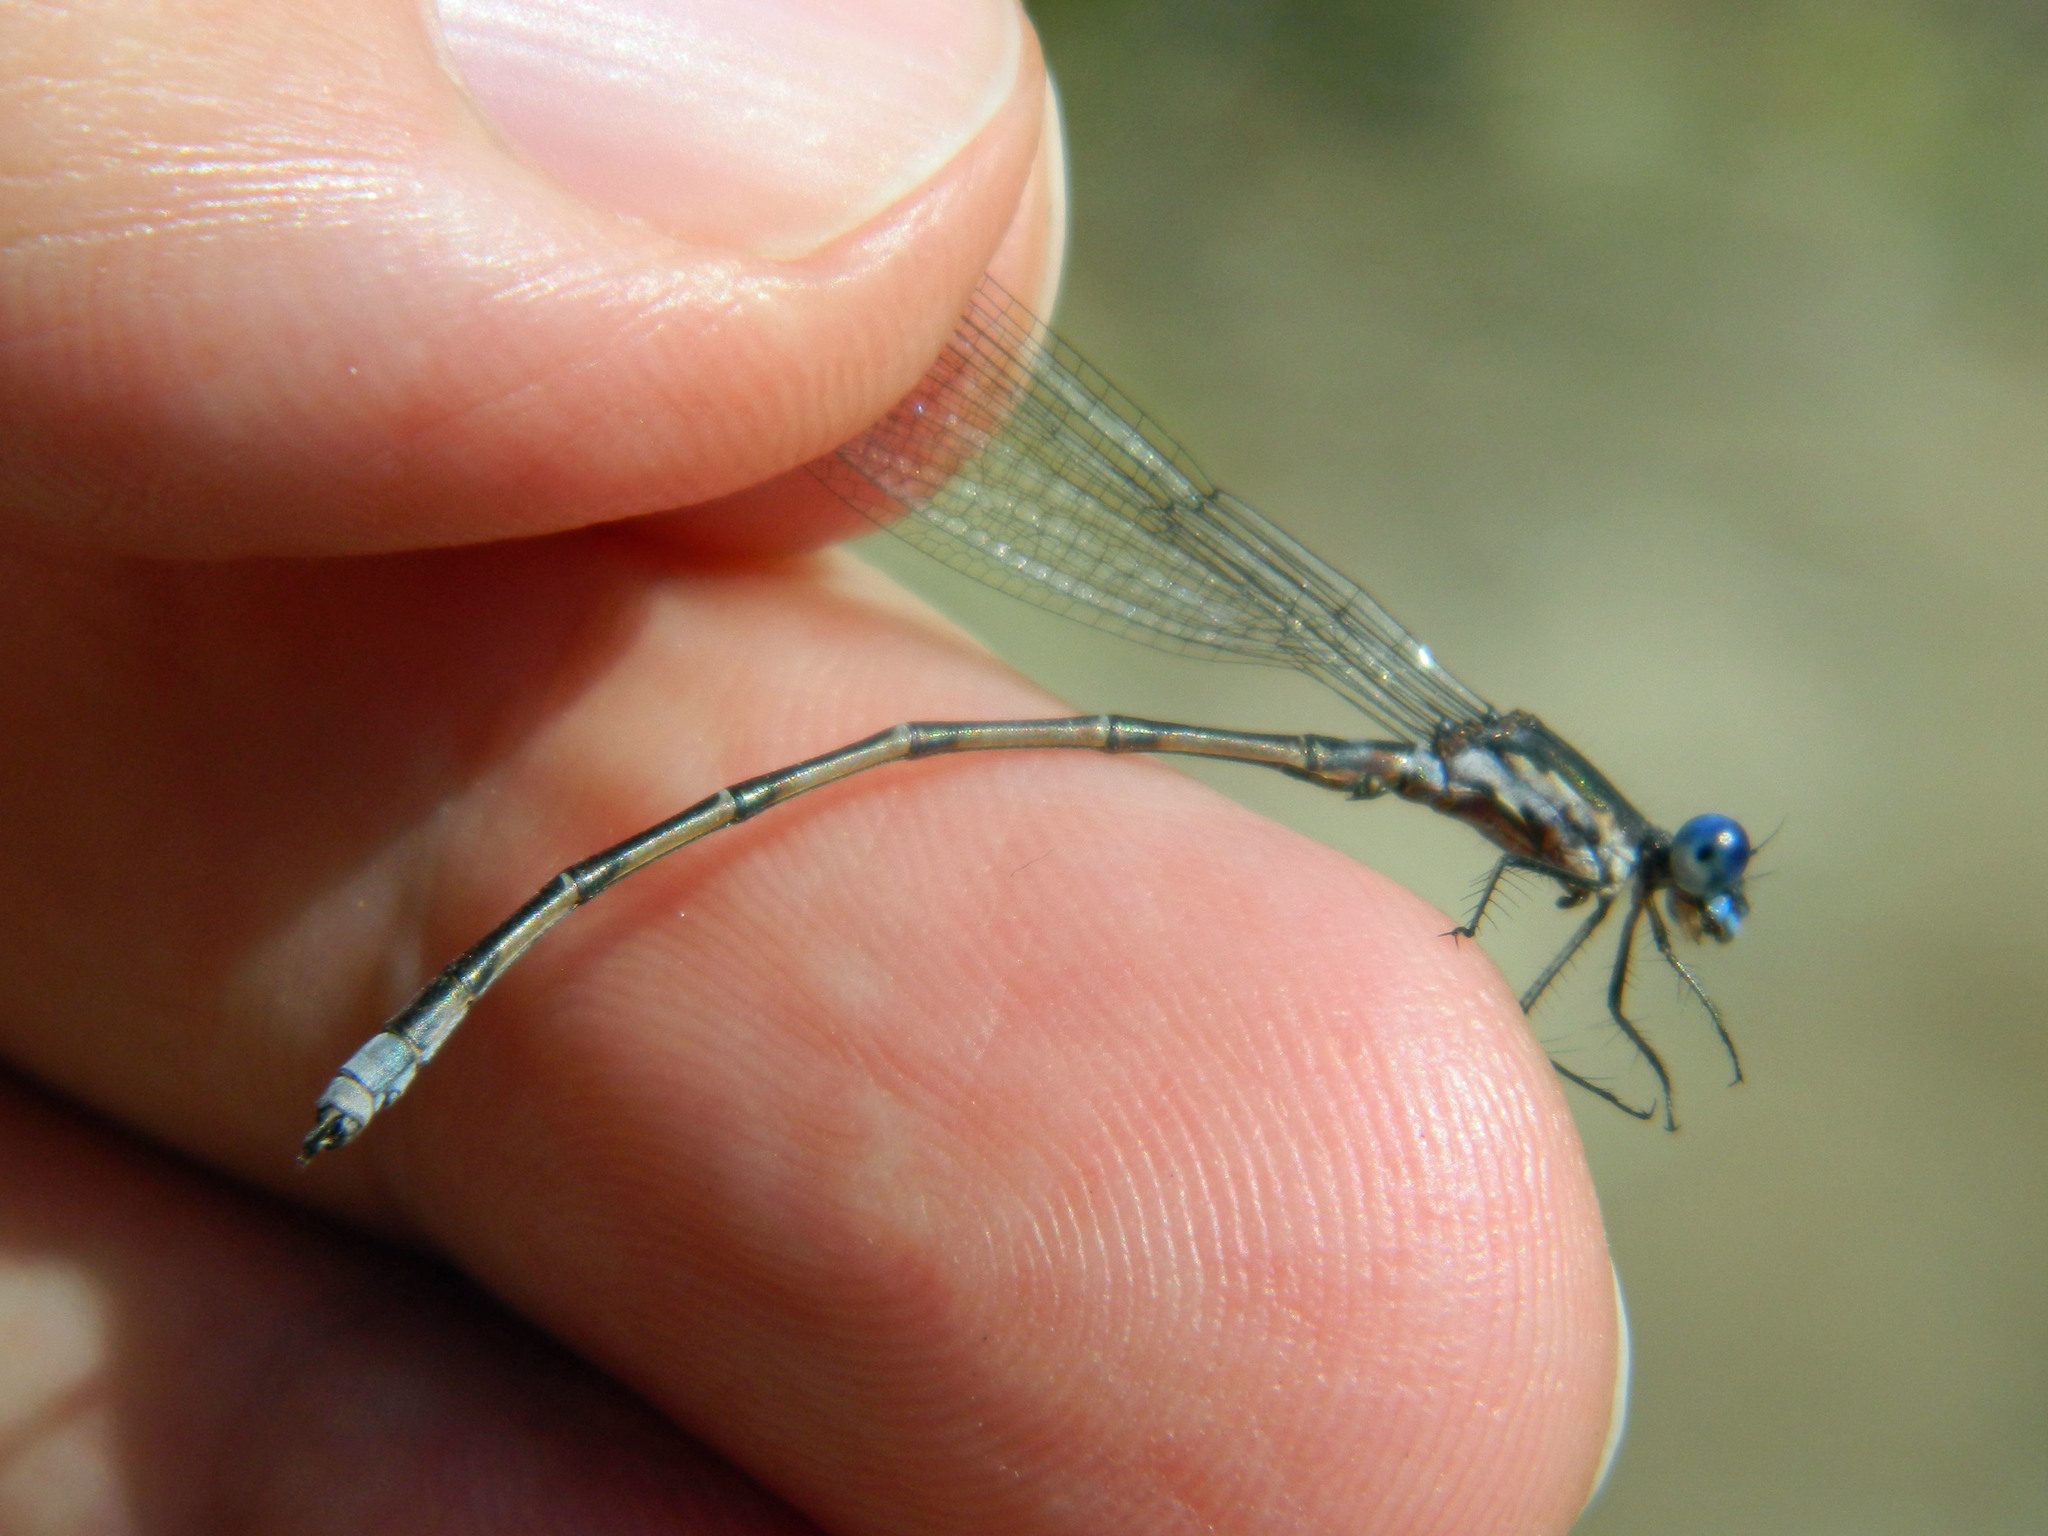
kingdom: Animalia
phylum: Arthropoda
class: Insecta
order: Odonata
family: Lestidae
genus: Lestes
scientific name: Lestes congener
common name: Spotted spreadwing
